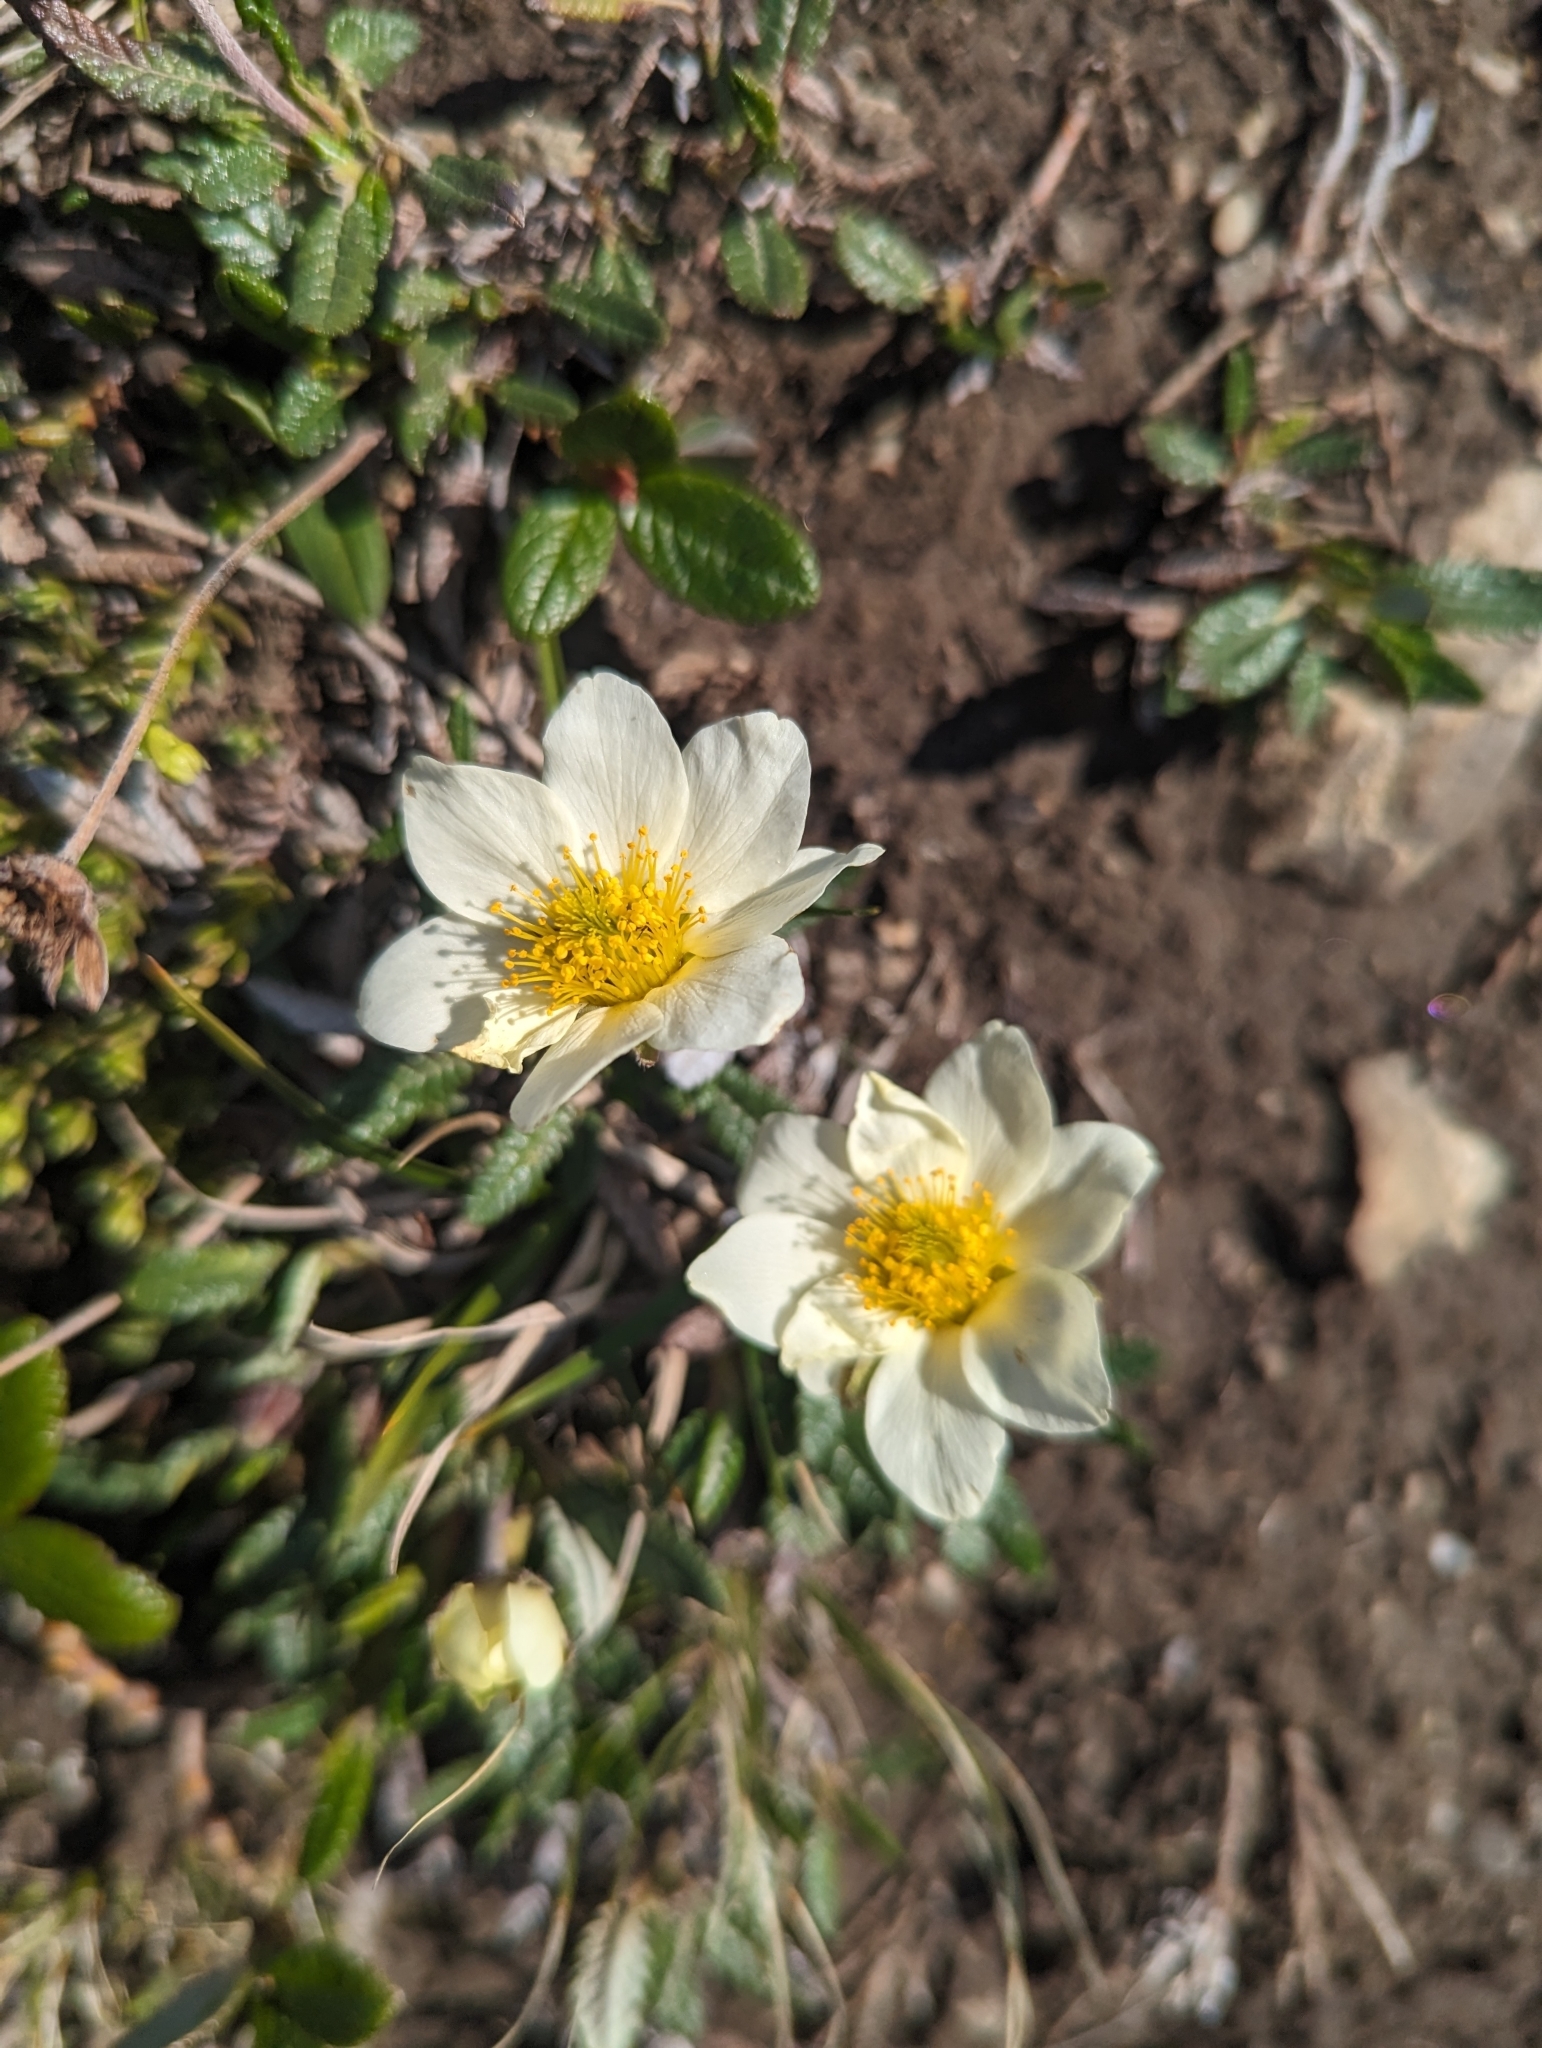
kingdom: Plantae
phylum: Tracheophyta
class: Magnoliopsida
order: Rosales
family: Rosaceae
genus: Dryas
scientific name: Dryas octopetala
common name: Eight-petal mountain-avens
